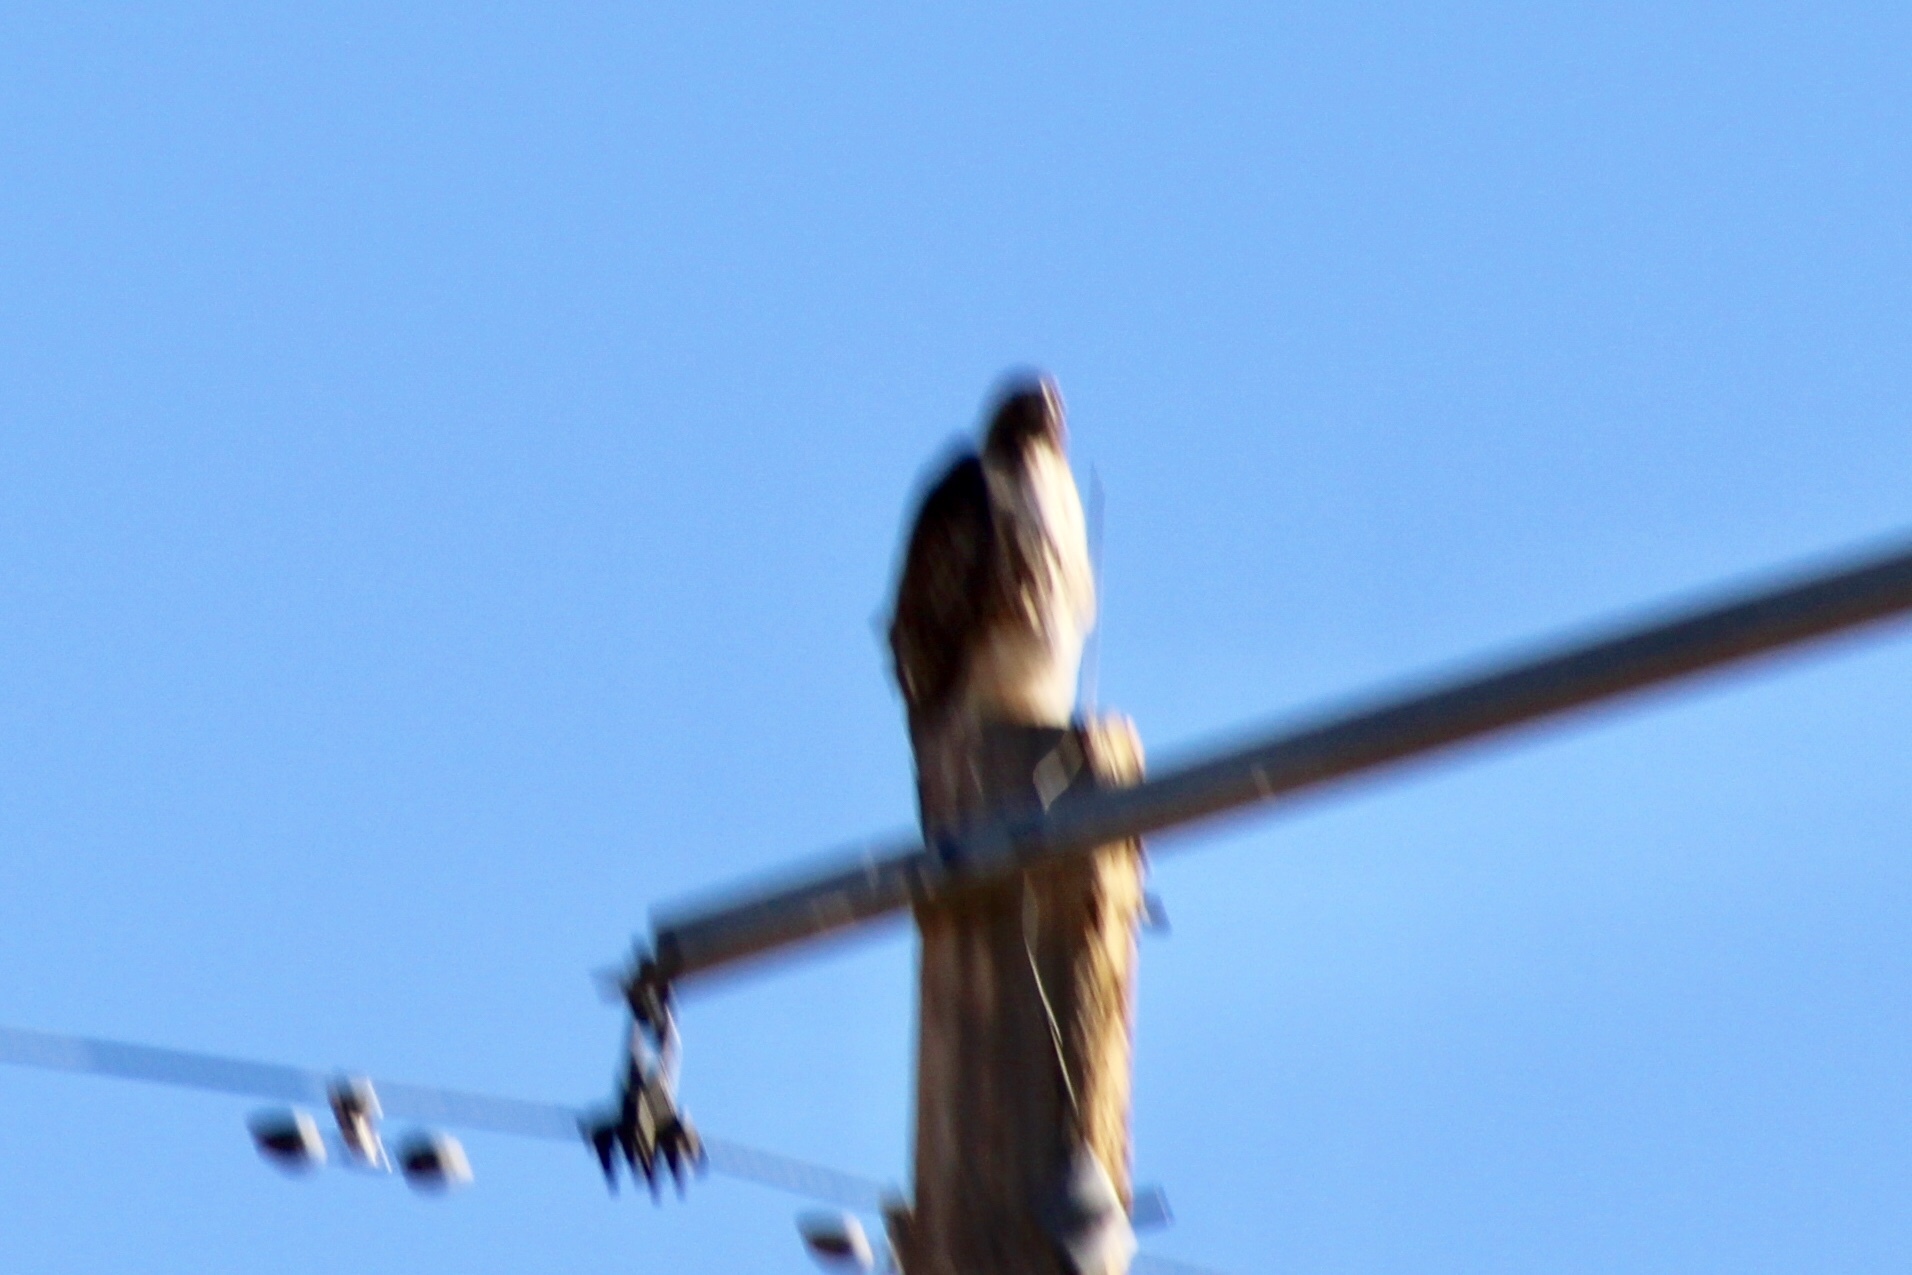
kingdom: Animalia
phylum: Chordata
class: Aves
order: Accipitriformes
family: Accipitridae
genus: Buteo
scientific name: Buteo jamaicensis
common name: Red-tailed hawk
